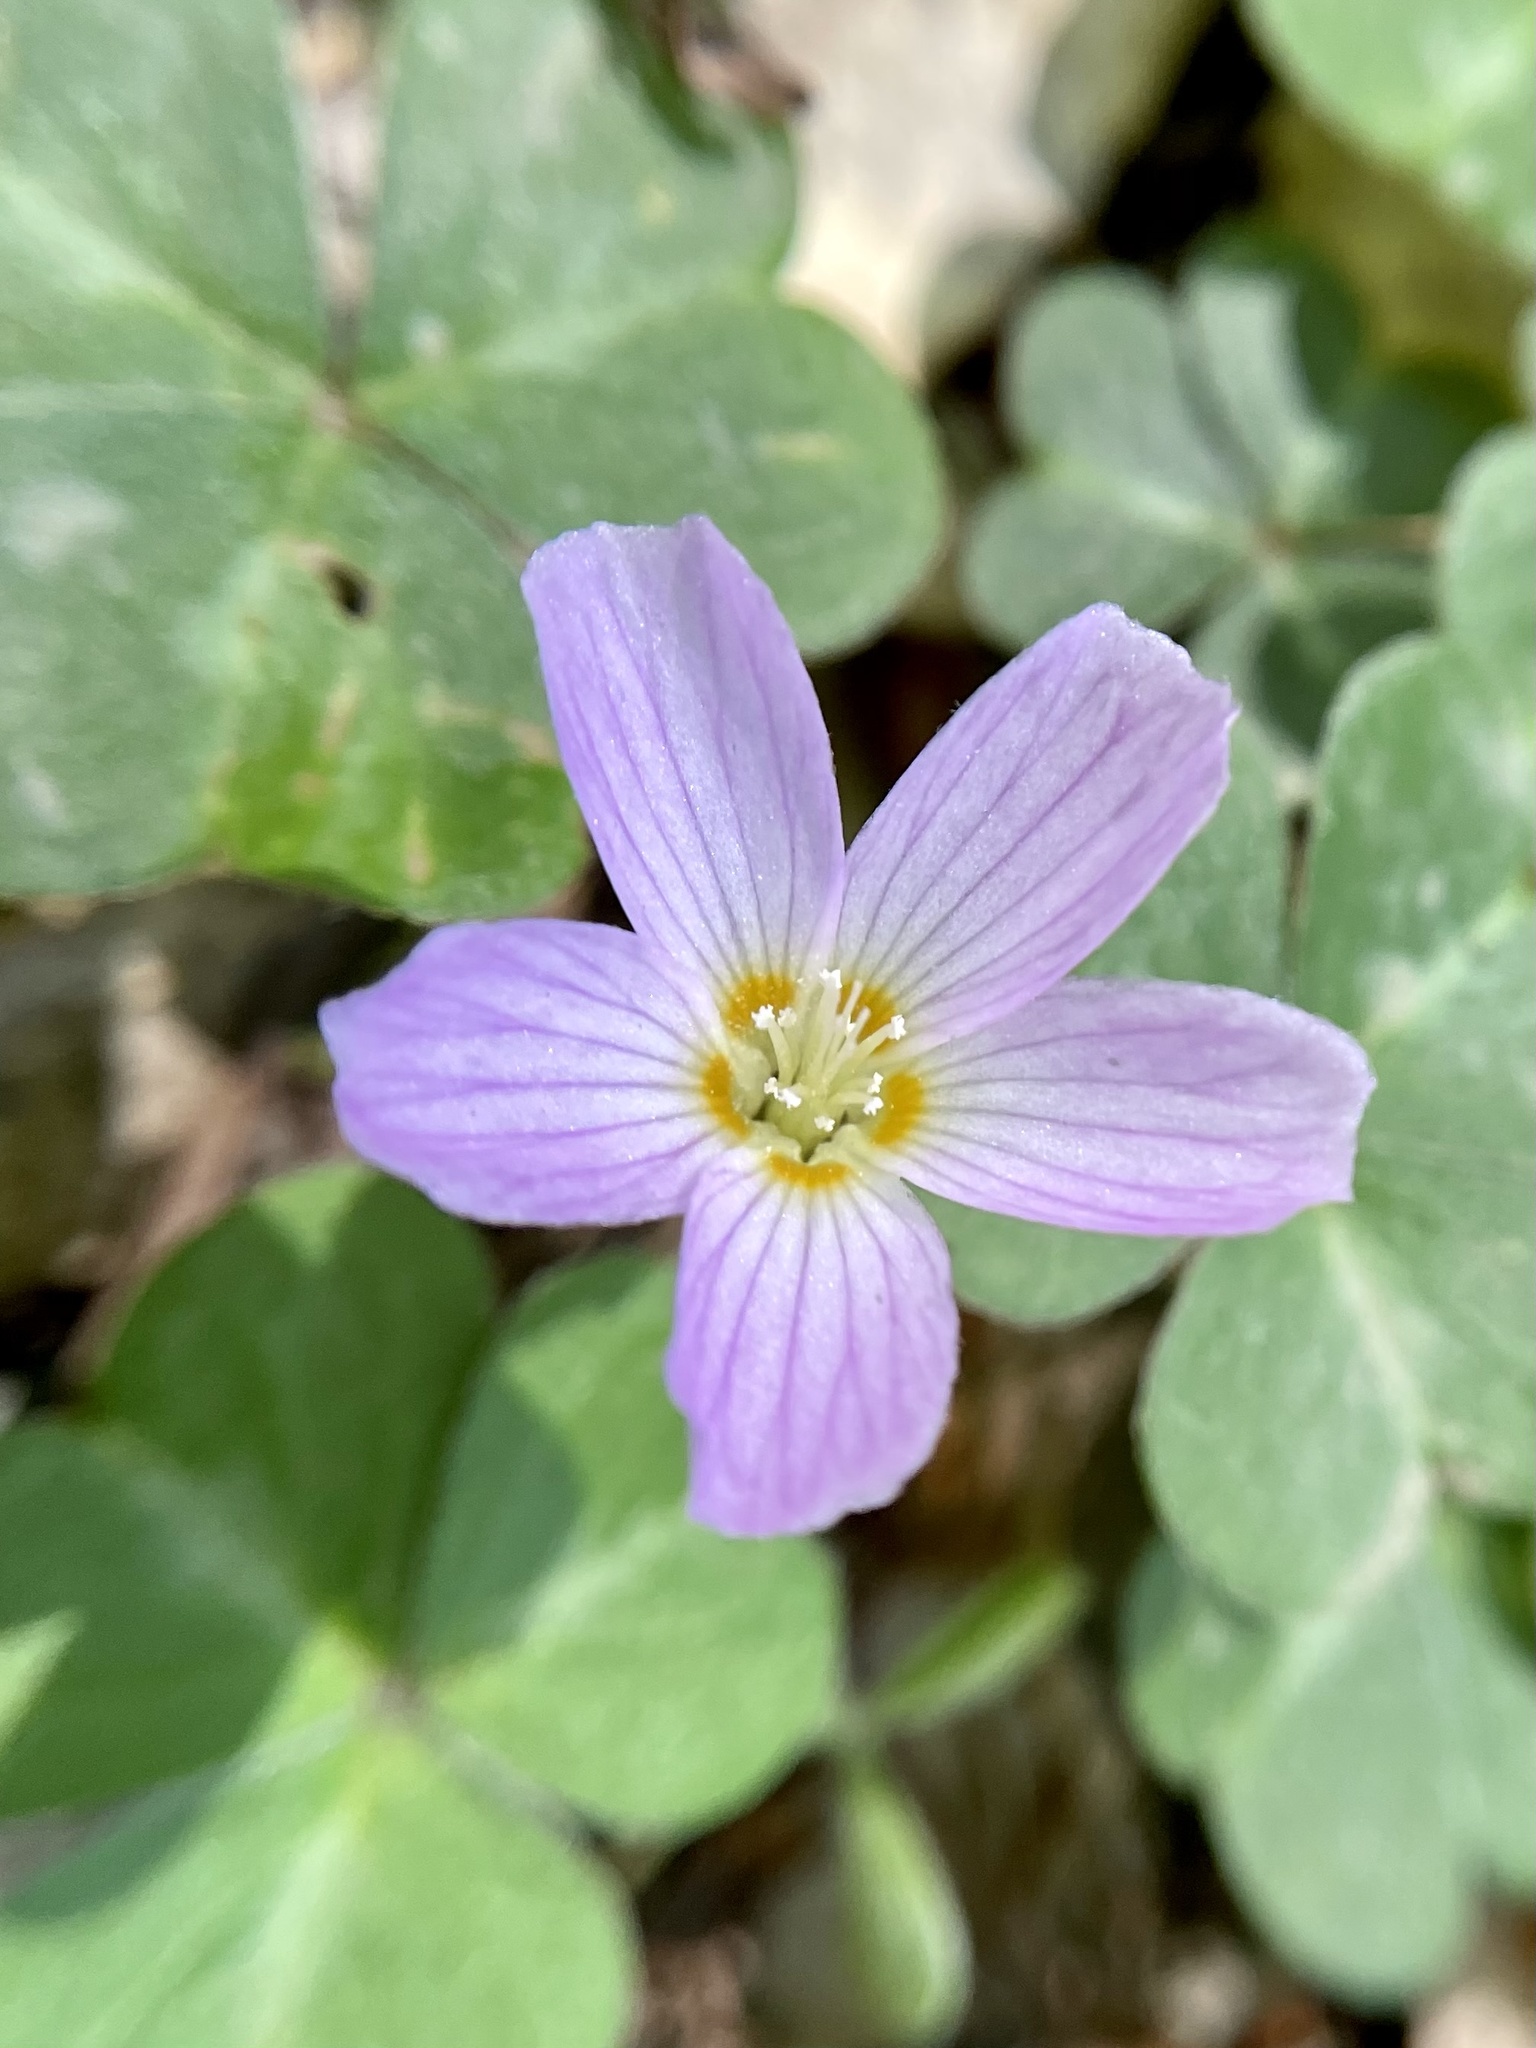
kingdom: Plantae
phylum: Tracheophyta
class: Magnoliopsida
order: Oxalidales
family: Oxalidaceae
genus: Oxalis
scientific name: Oxalis oregana
